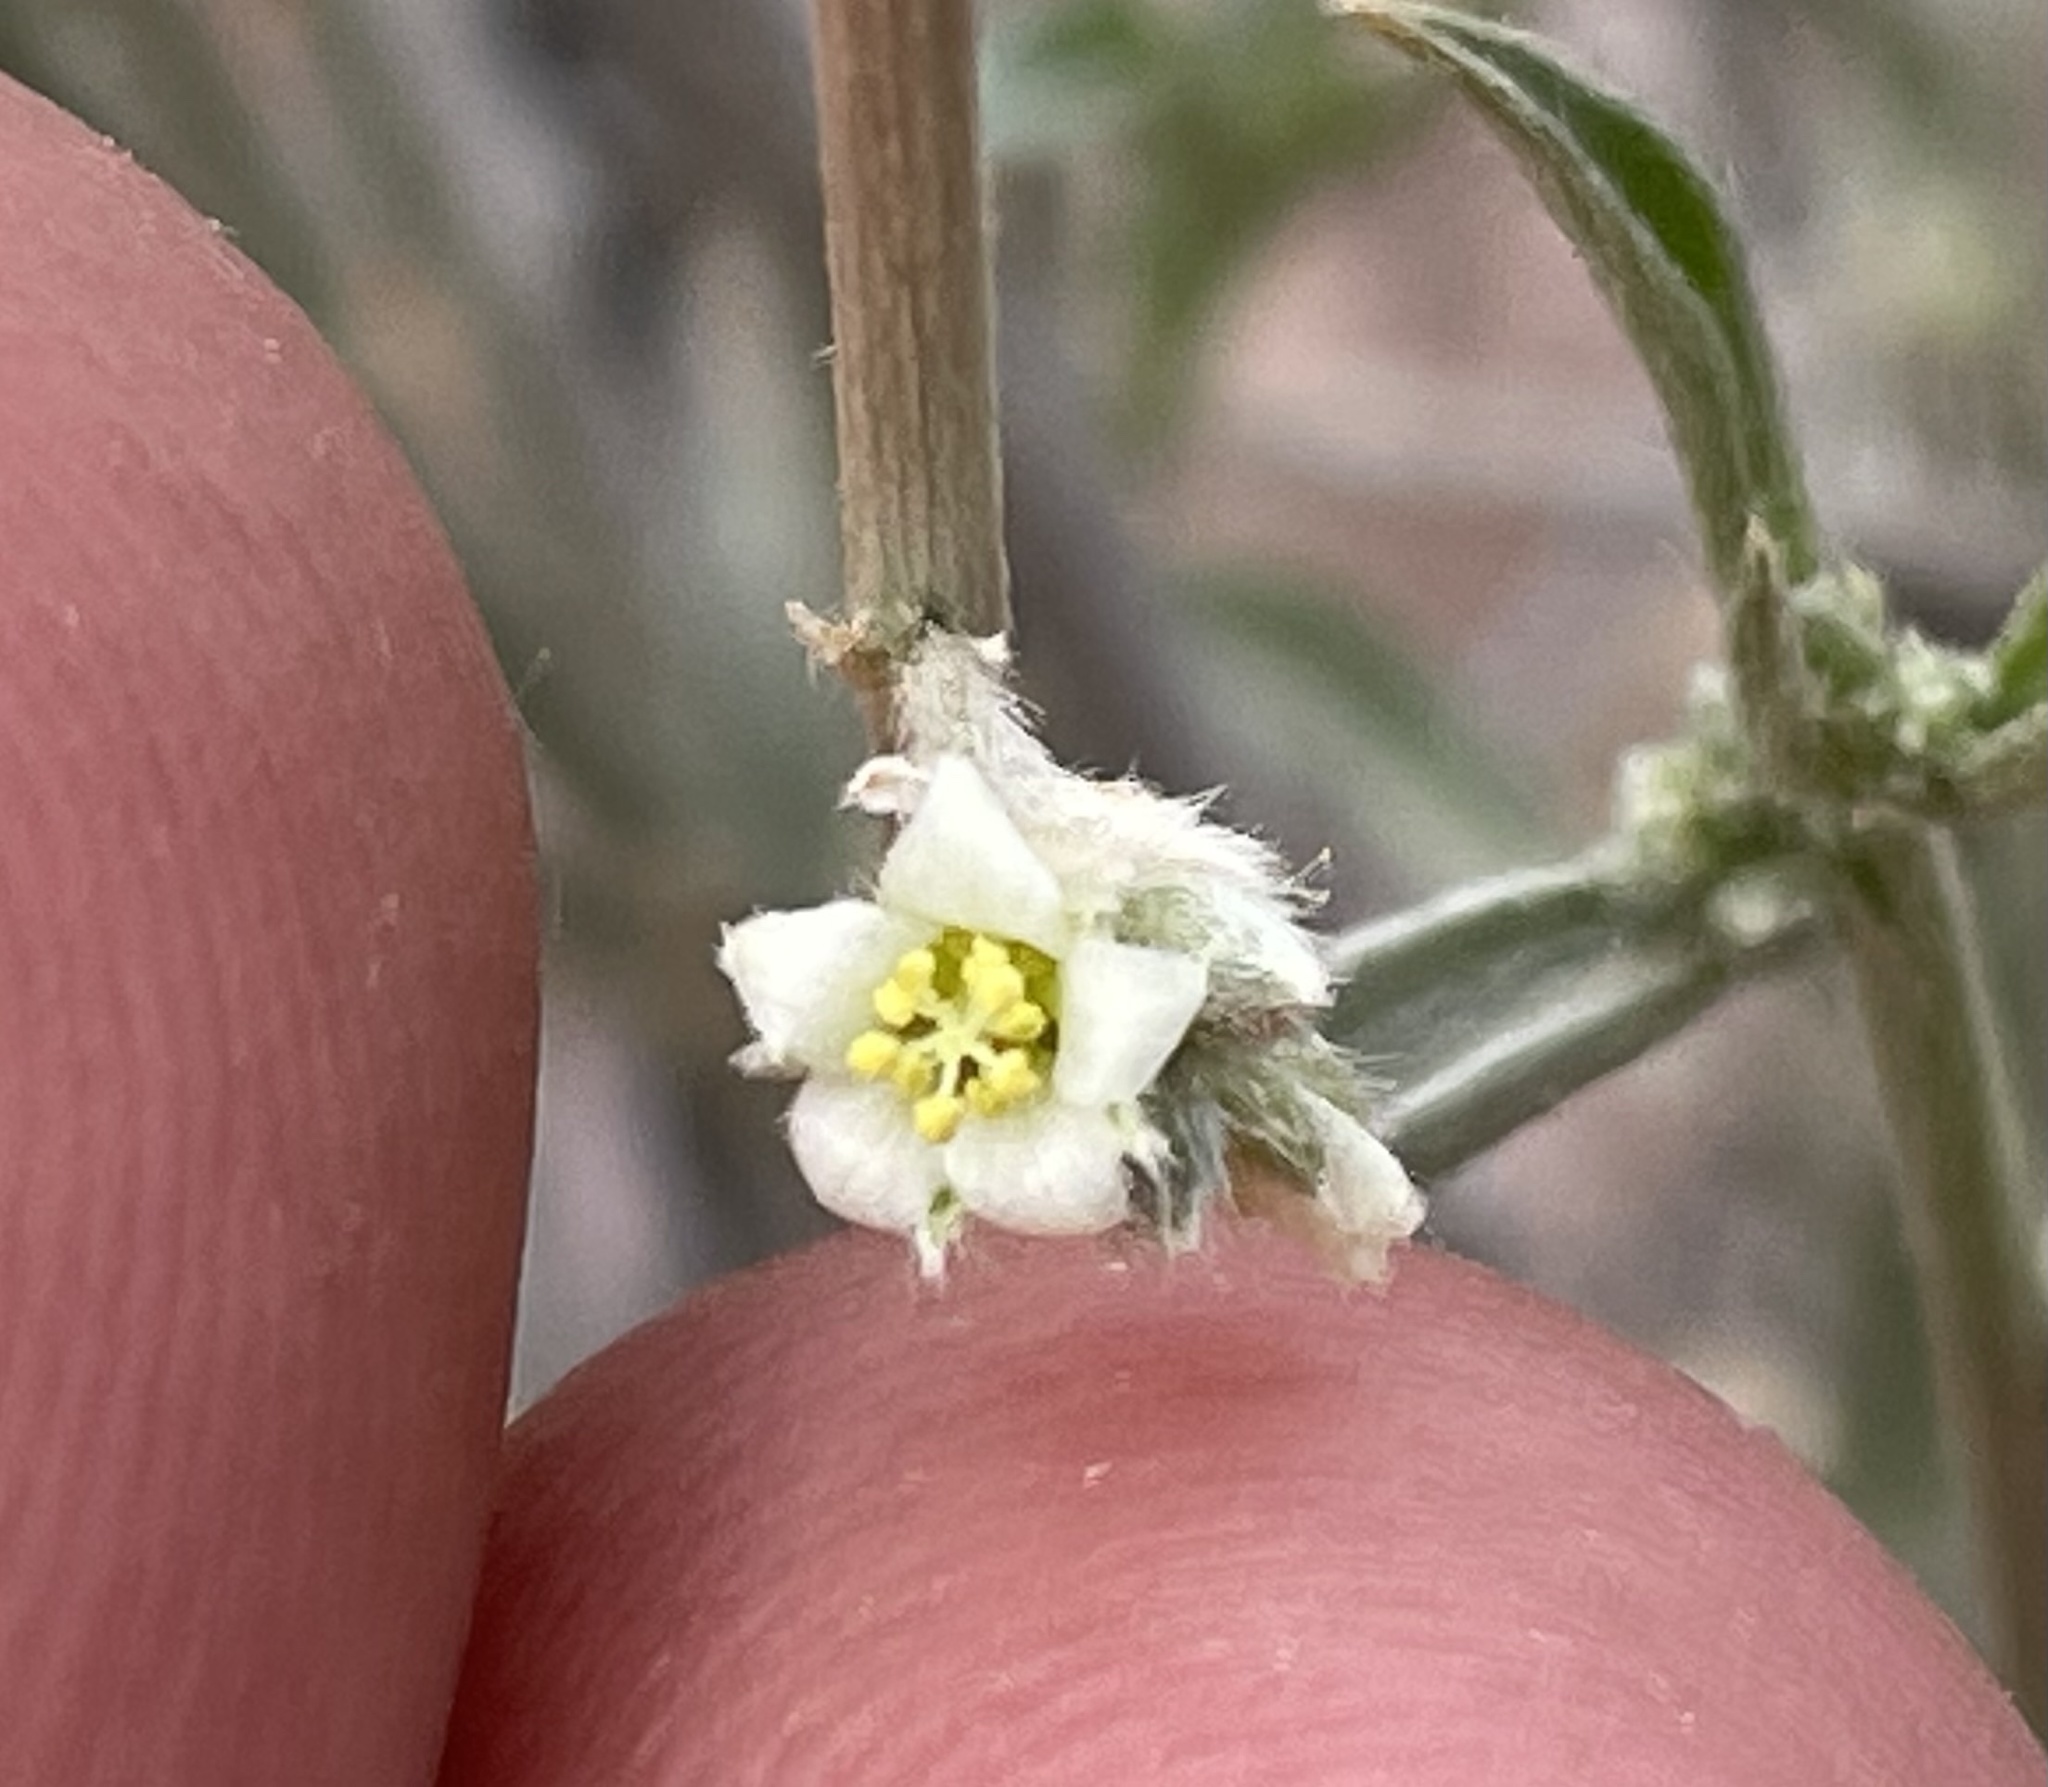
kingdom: Plantae
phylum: Tracheophyta
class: Magnoliopsida
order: Malpighiales
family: Euphorbiaceae
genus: Ditaxis
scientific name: Ditaxis lanceolata
